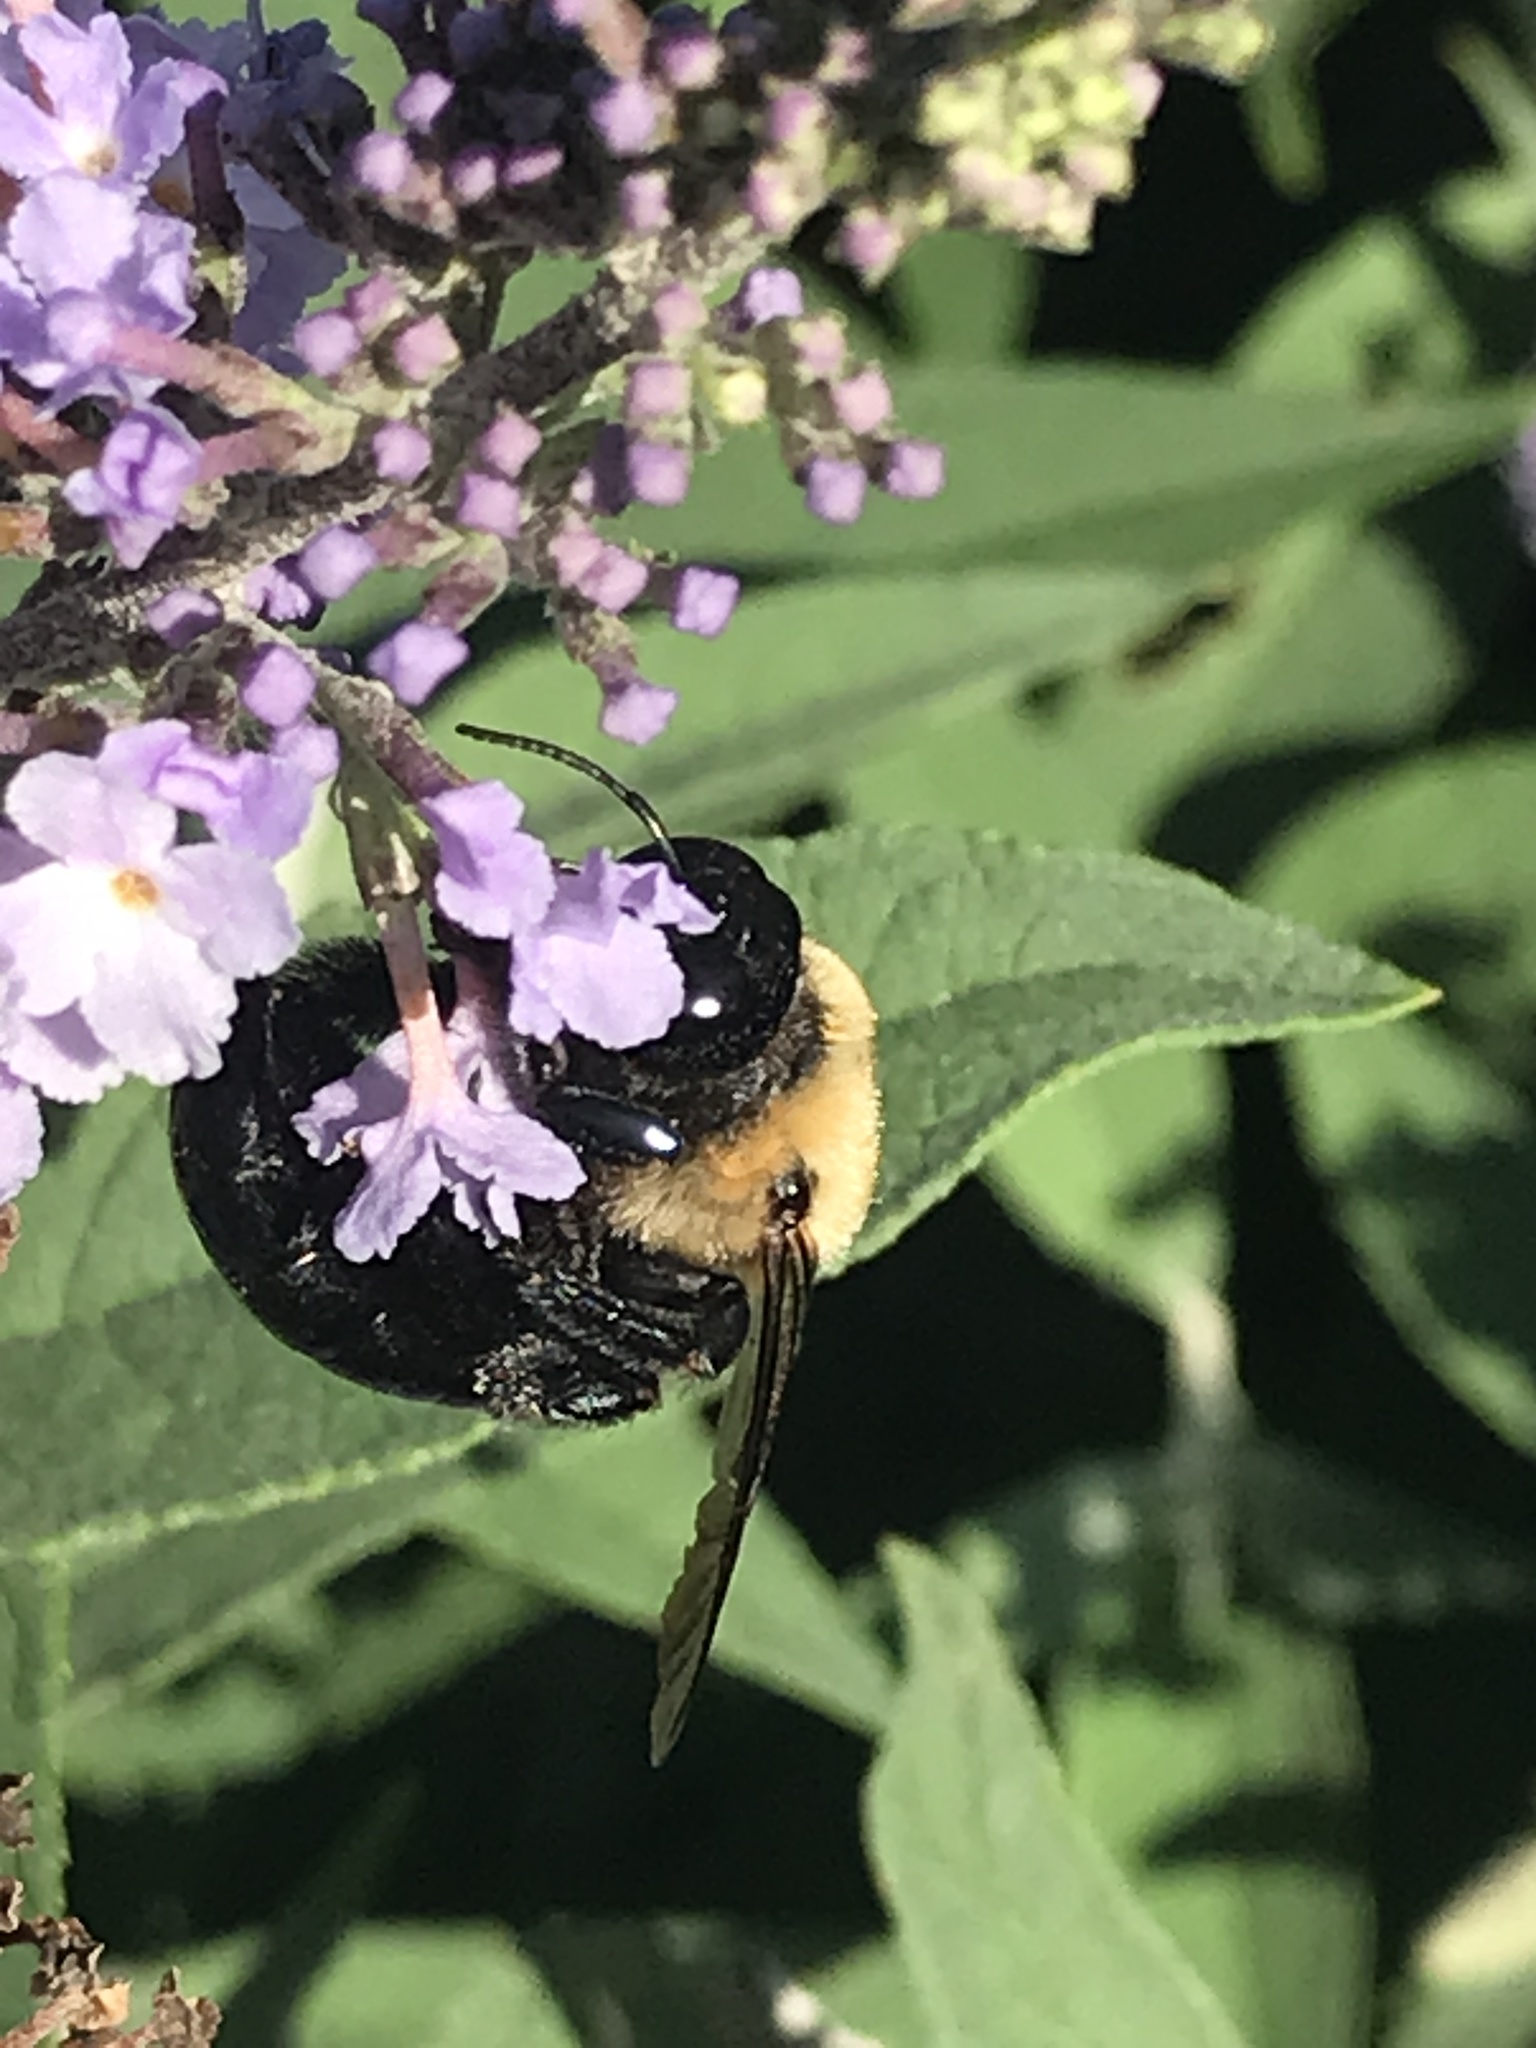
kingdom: Animalia
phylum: Arthropoda
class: Insecta
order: Hymenoptera
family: Apidae
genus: Xylocopa
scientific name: Xylocopa virginica
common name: Carpenter bee
